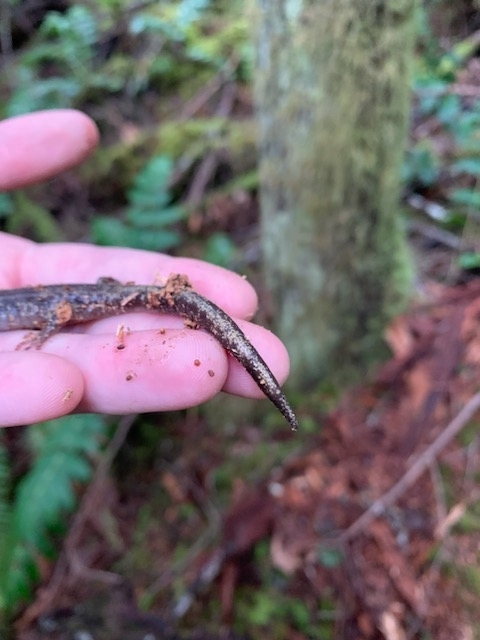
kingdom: Animalia
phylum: Chordata
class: Amphibia
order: Caudata
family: Plethodontidae
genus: Aneides
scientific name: Aneides ferreus
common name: Clouded salamander
